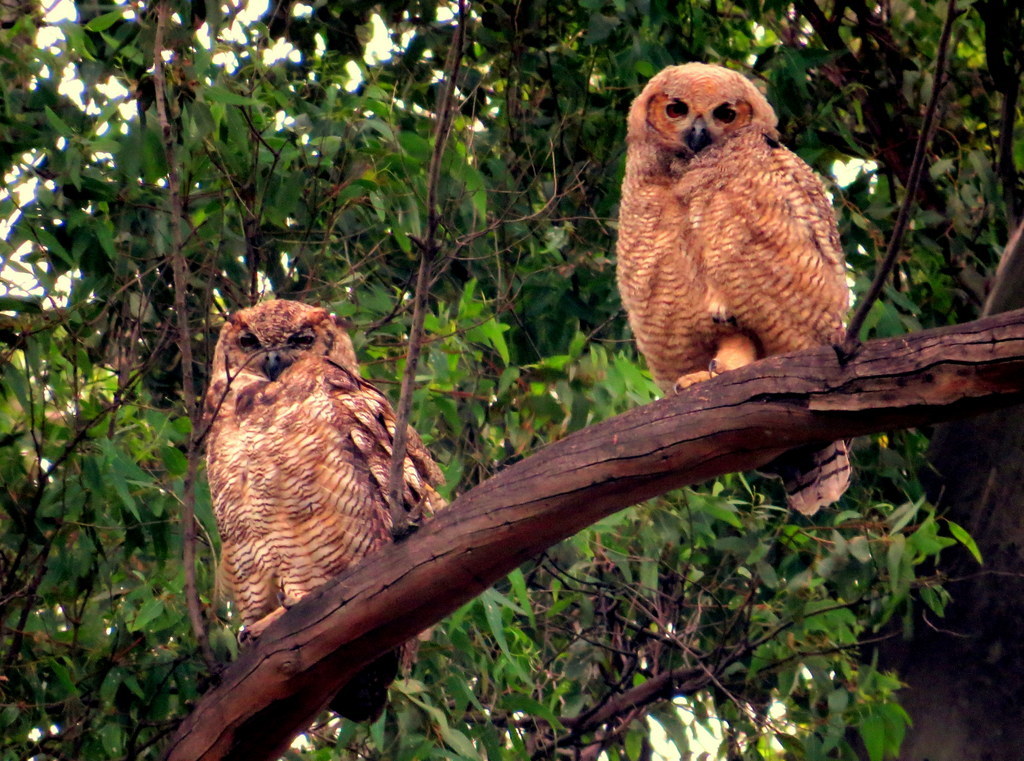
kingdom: Animalia
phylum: Chordata
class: Aves
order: Strigiformes
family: Strigidae
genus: Bubo
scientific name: Bubo virginianus
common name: Great horned owl
